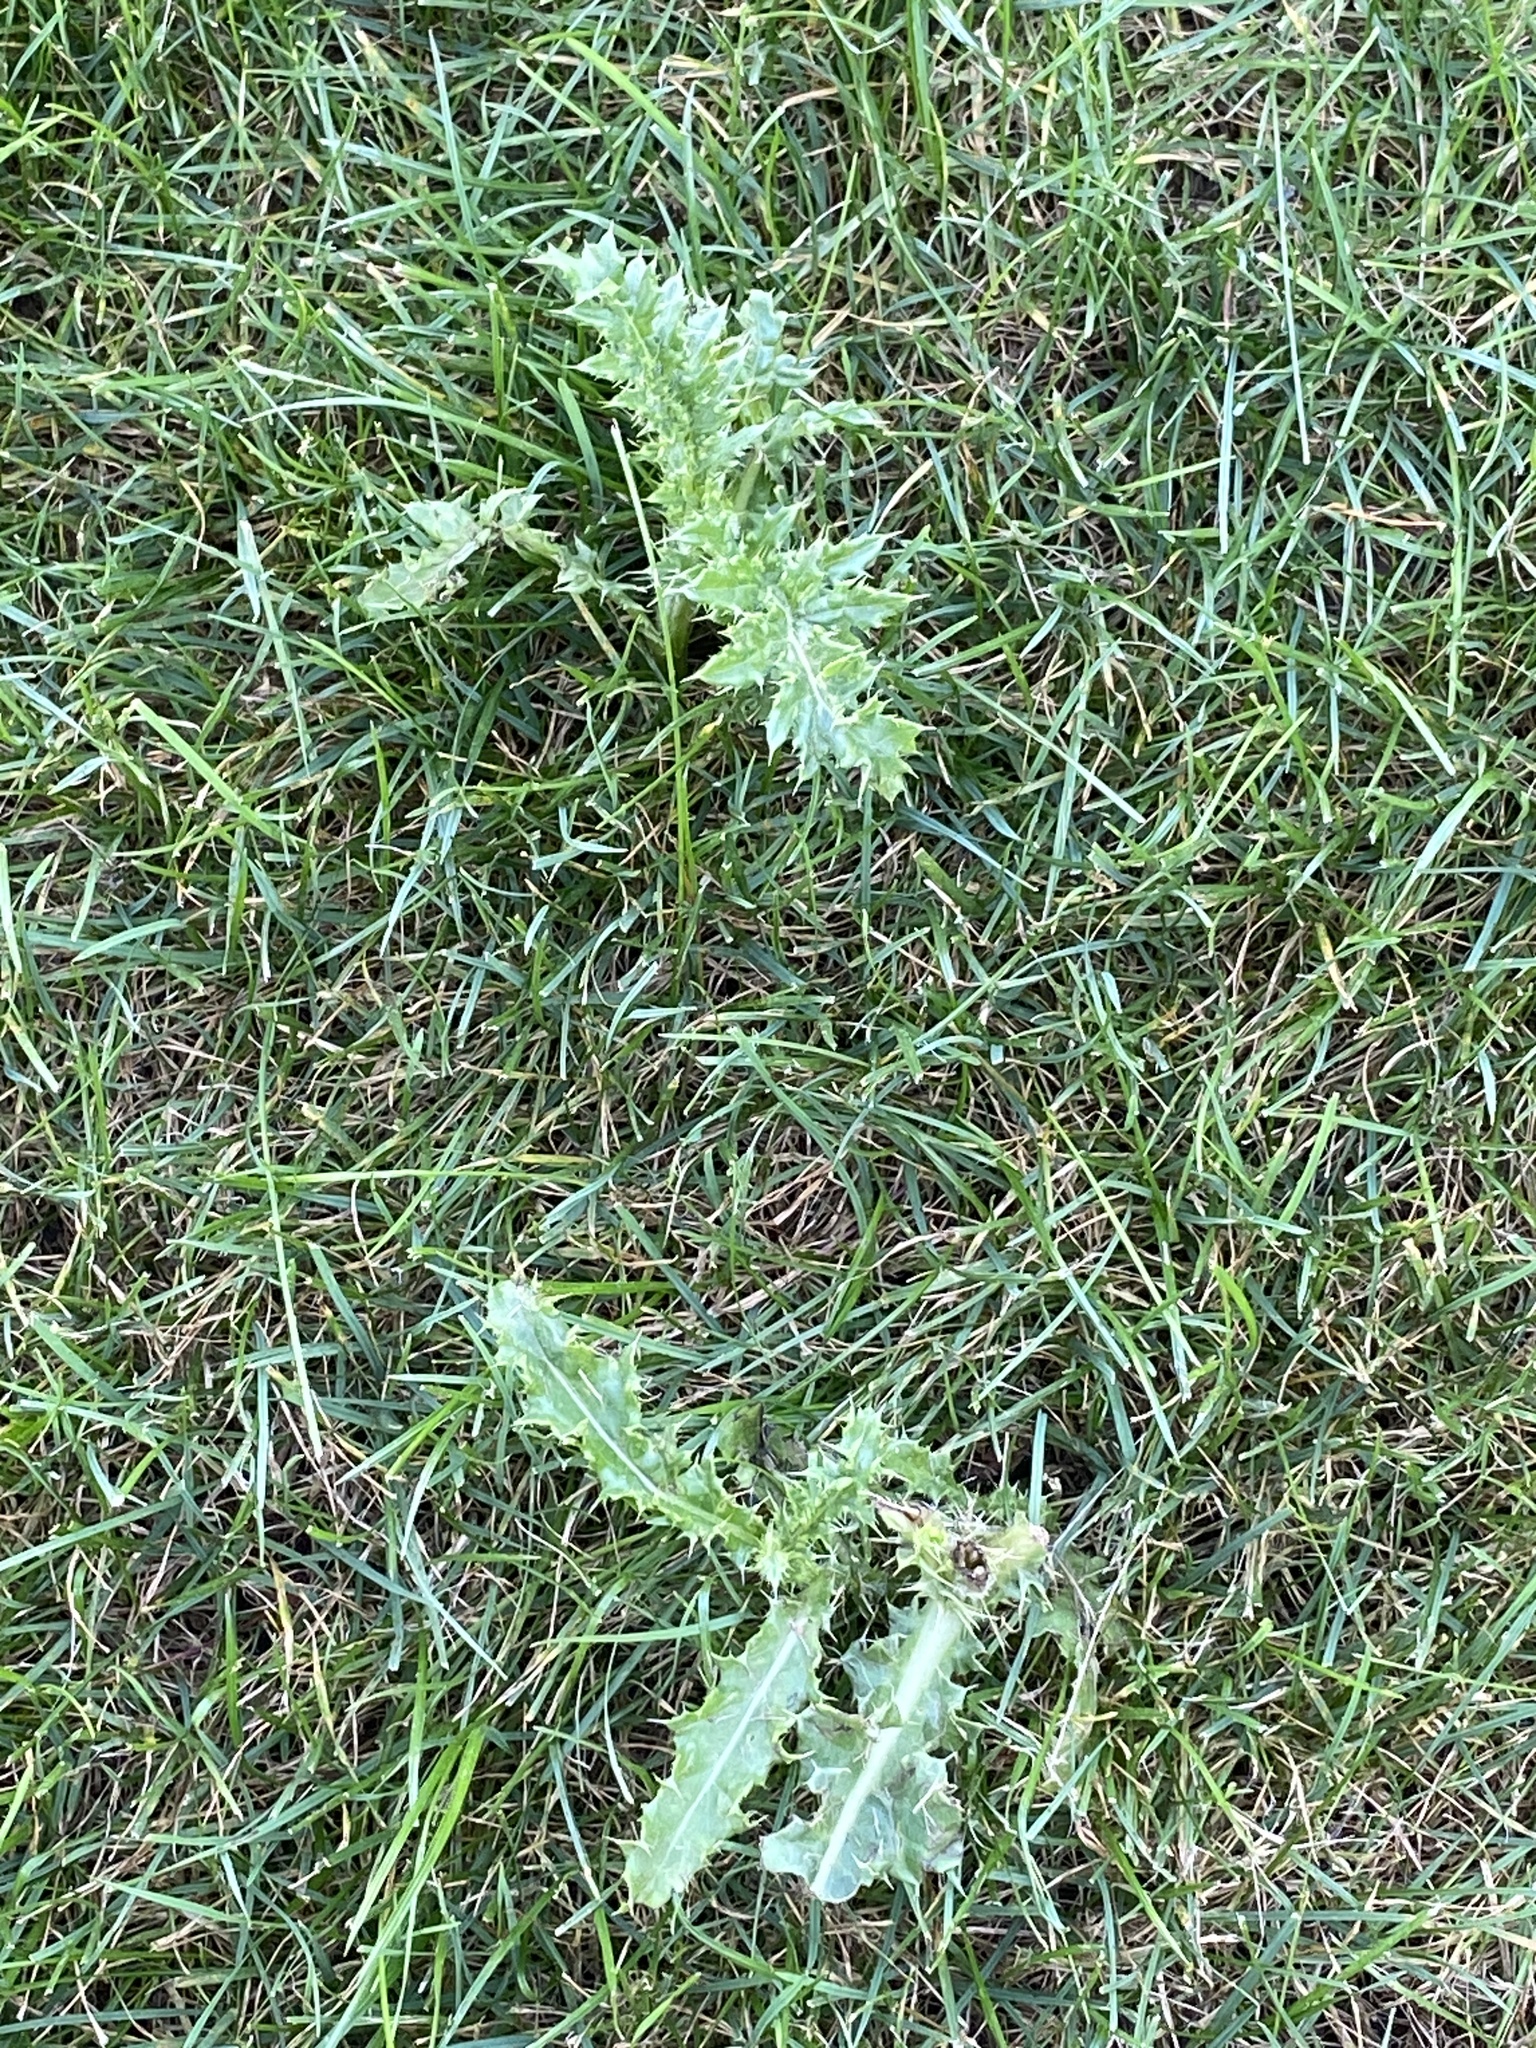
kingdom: Plantae
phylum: Tracheophyta
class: Magnoliopsida
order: Asterales
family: Asteraceae
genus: Cirsium
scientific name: Cirsium arvense
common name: Creeping thistle
